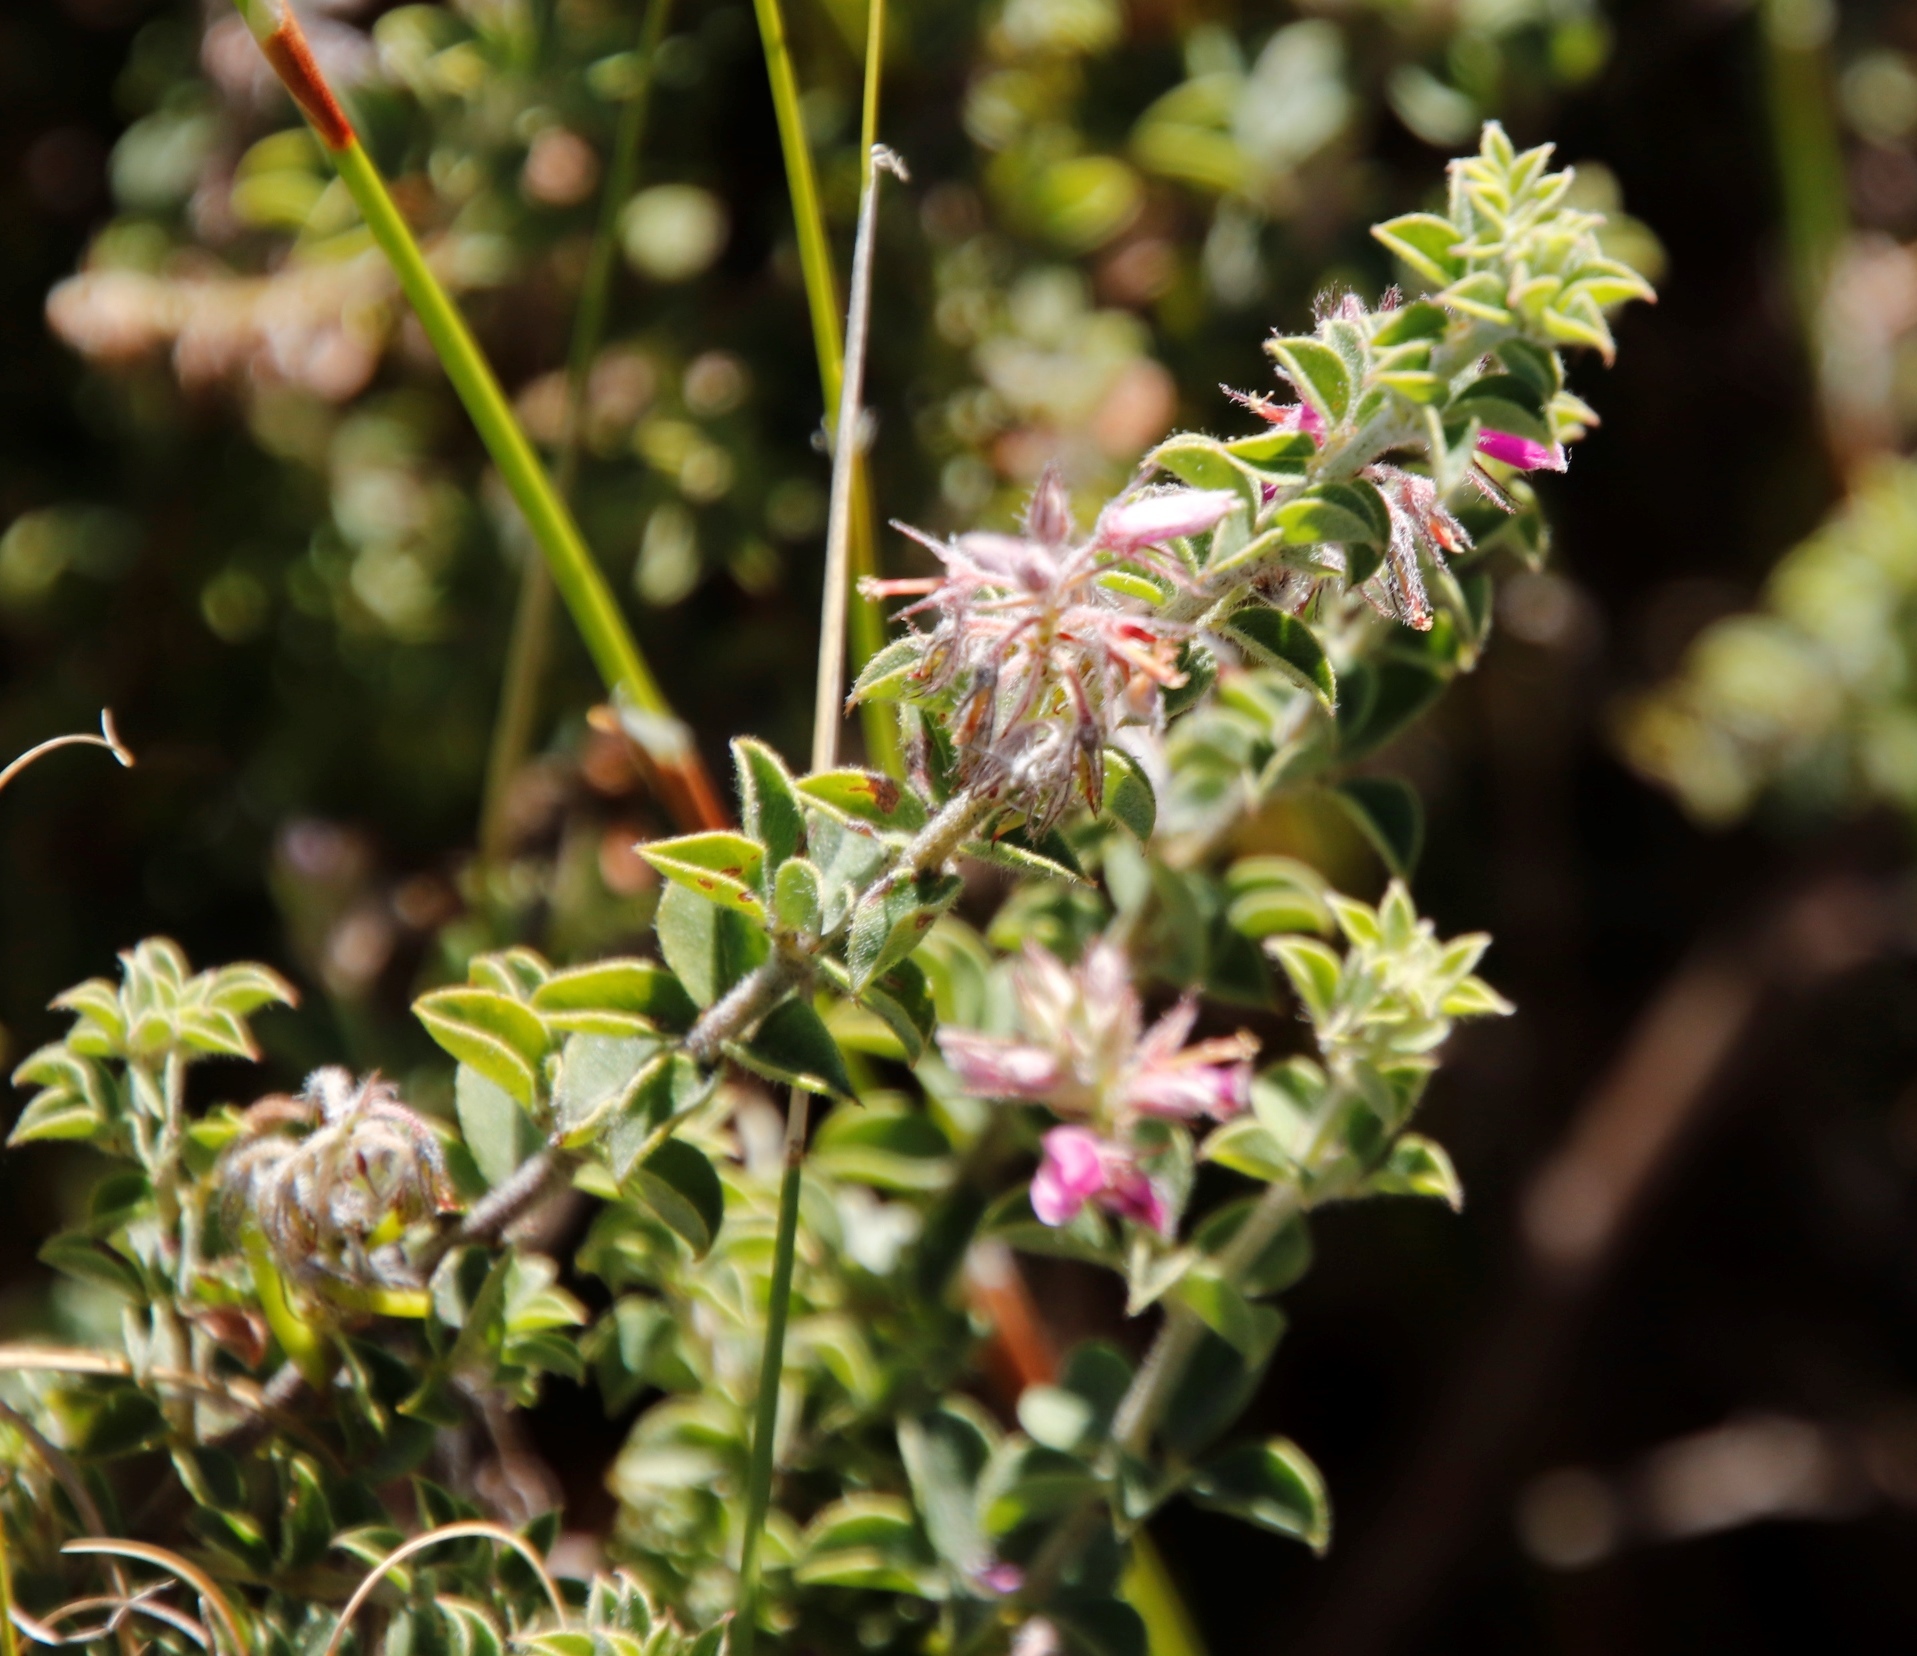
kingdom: Plantae
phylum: Tracheophyta
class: Magnoliopsida
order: Fabales
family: Fabaceae
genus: Indigofera
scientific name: Indigofera candolleana
